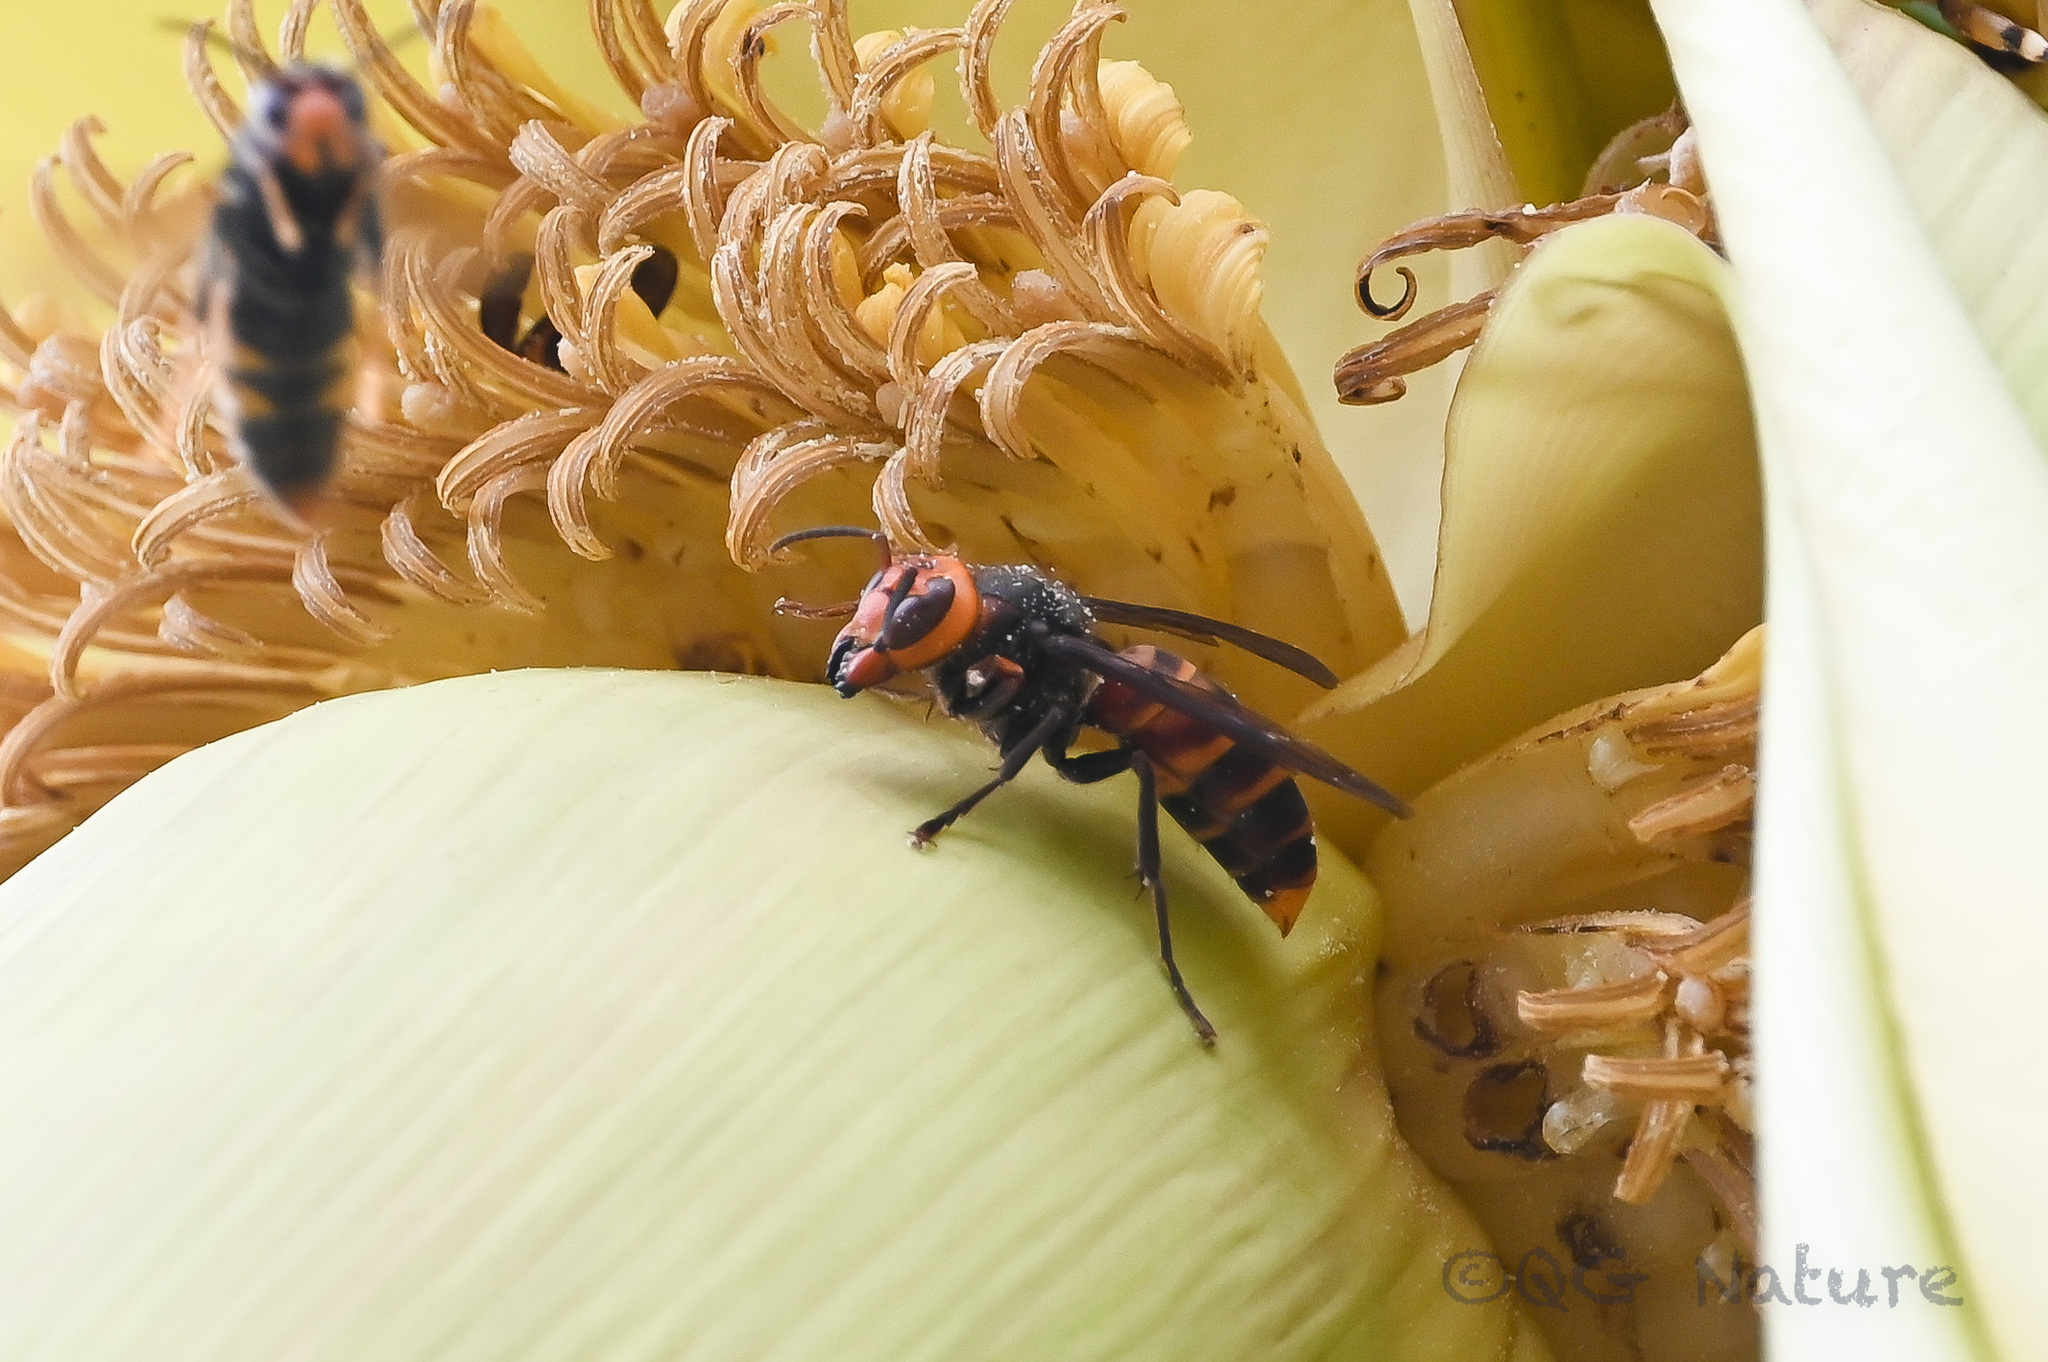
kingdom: Animalia
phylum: Arthropoda
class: Insecta
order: Hymenoptera
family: Vespidae
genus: Vespa
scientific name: Vespa analis
